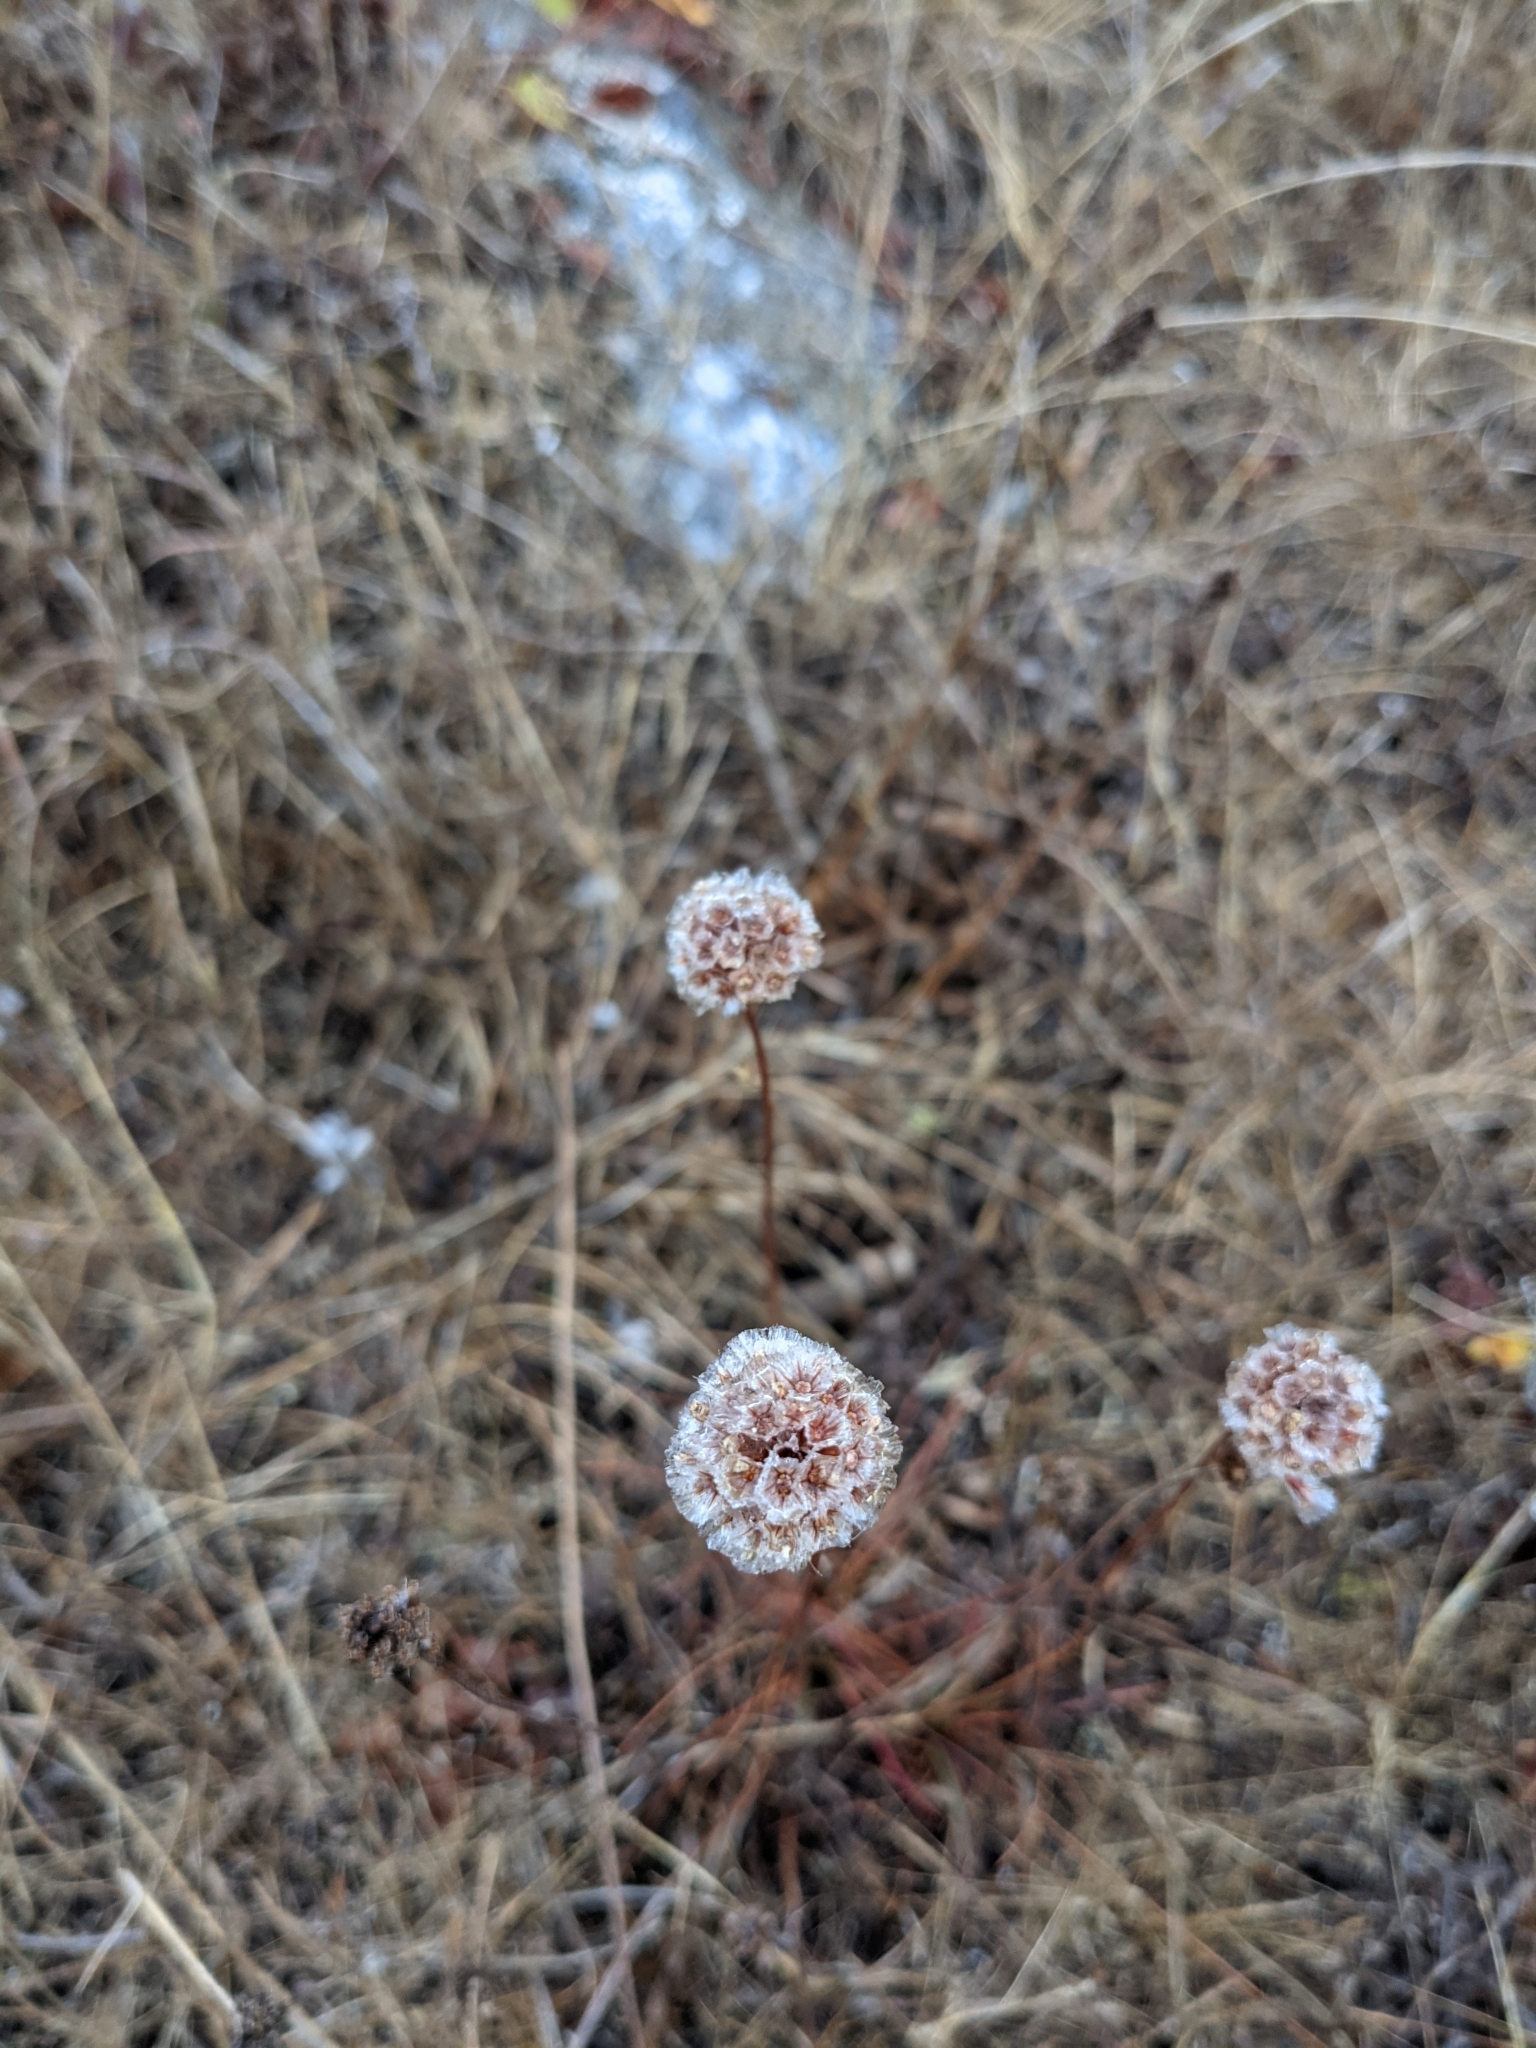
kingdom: Plantae
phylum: Tracheophyta
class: Magnoliopsida
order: Caryophyllales
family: Plumbaginaceae
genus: Armeria
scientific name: Armeria maritima
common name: Thrift
